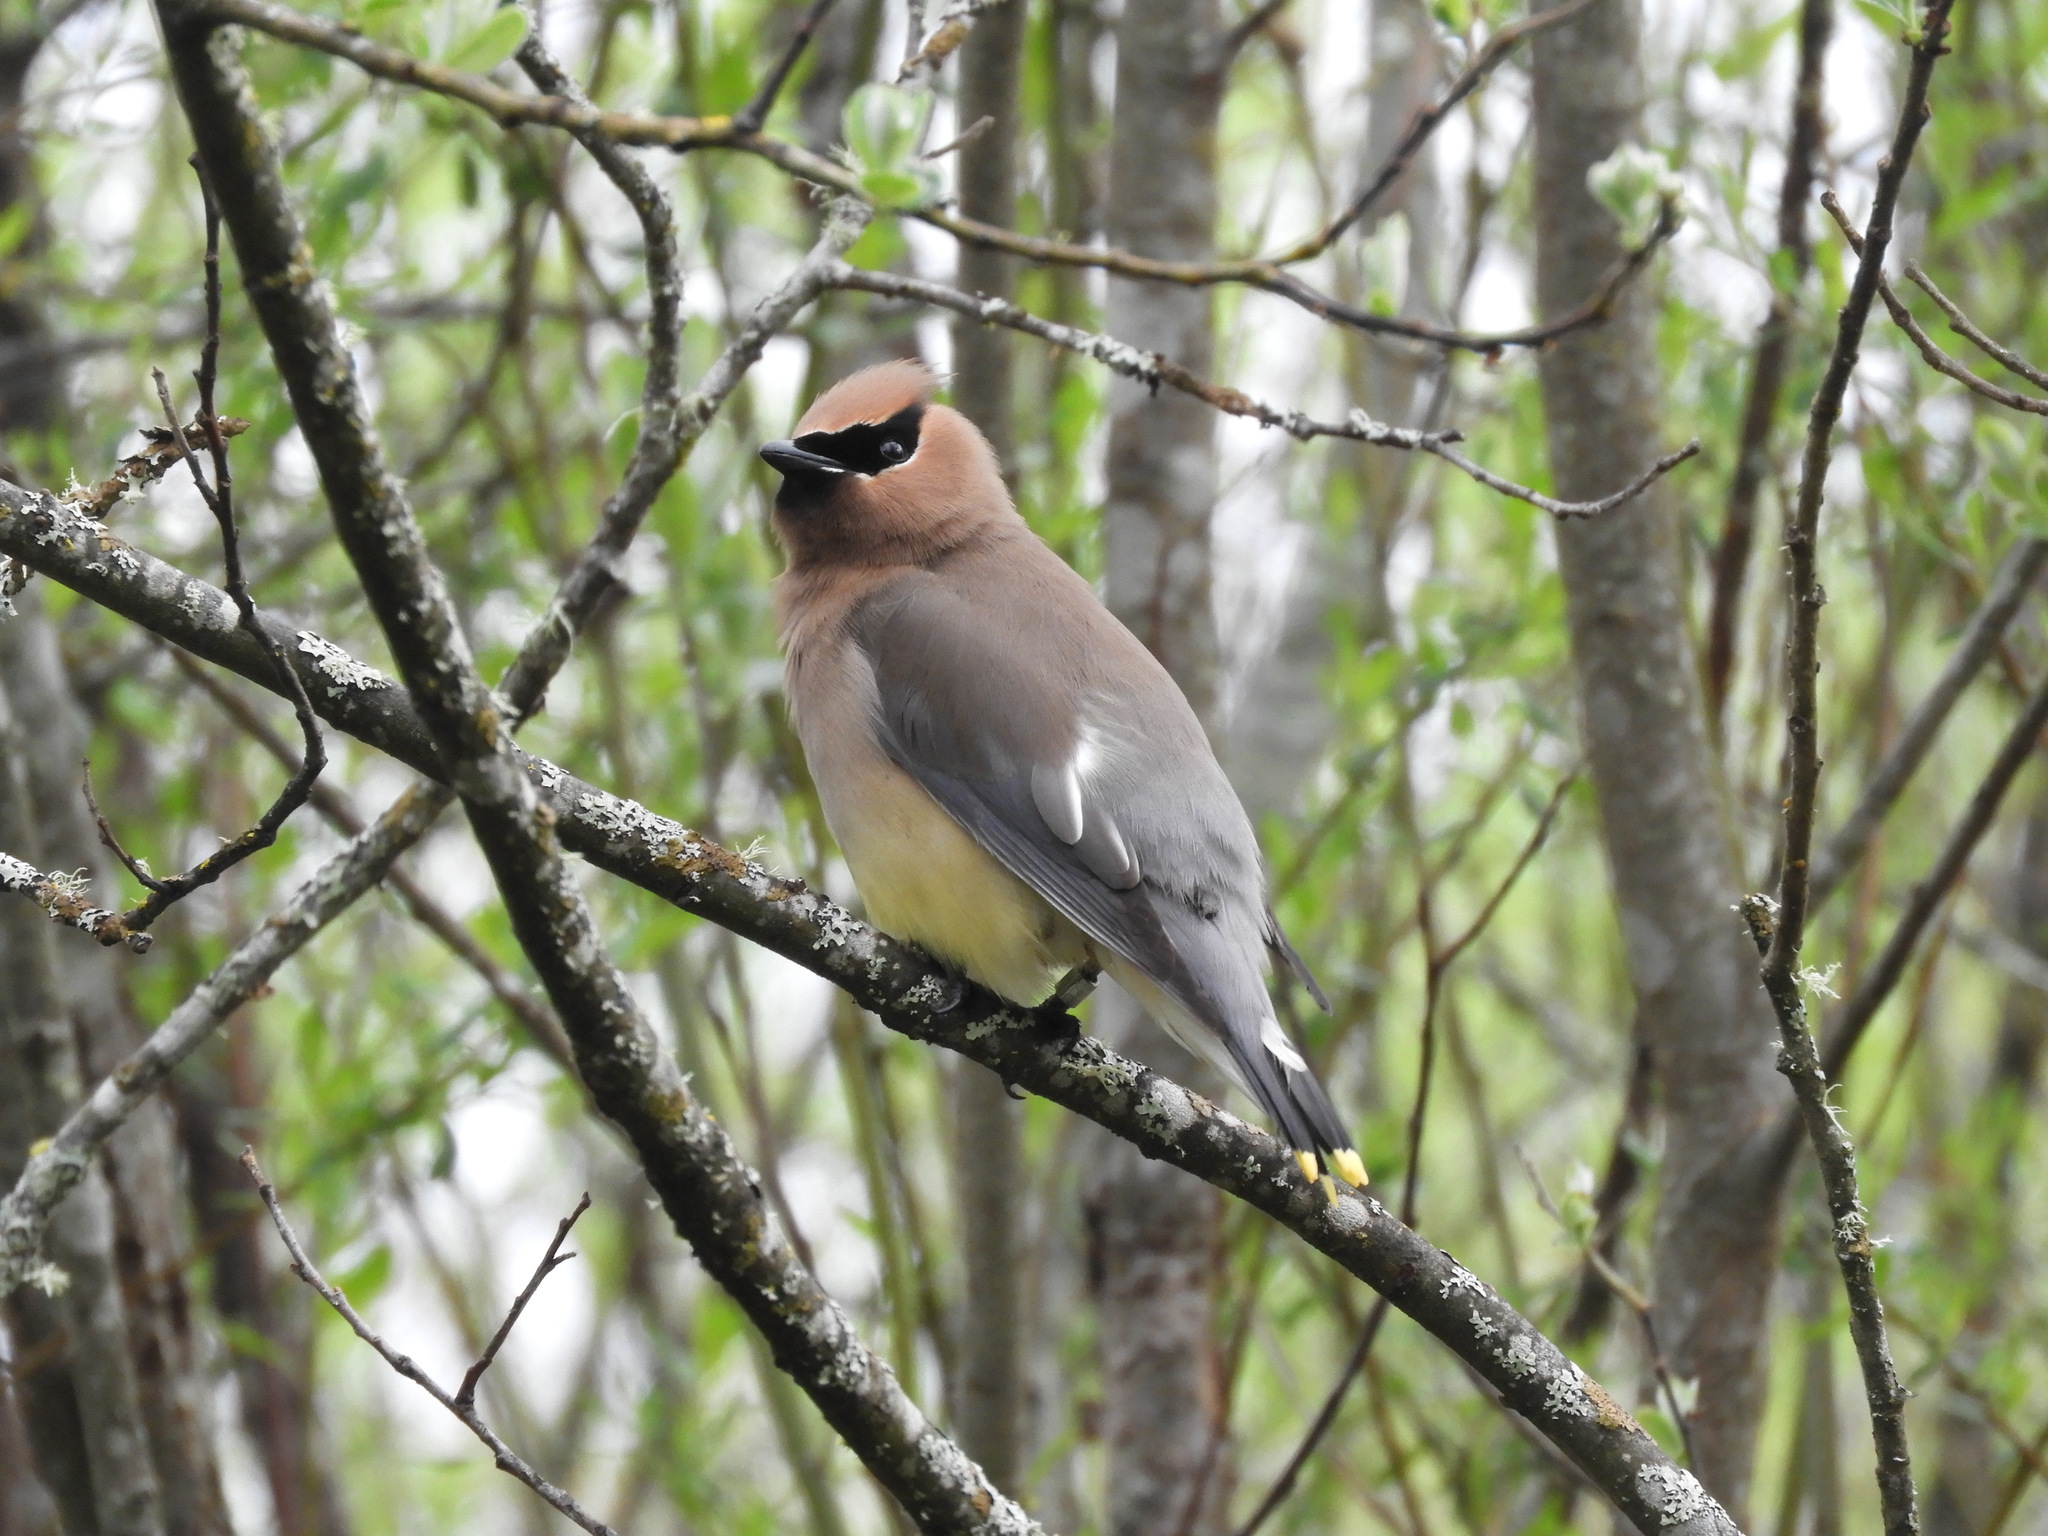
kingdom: Animalia
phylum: Chordata
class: Aves
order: Passeriformes
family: Bombycillidae
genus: Bombycilla
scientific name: Bombycilla cedrorum
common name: Cedar waxwing
